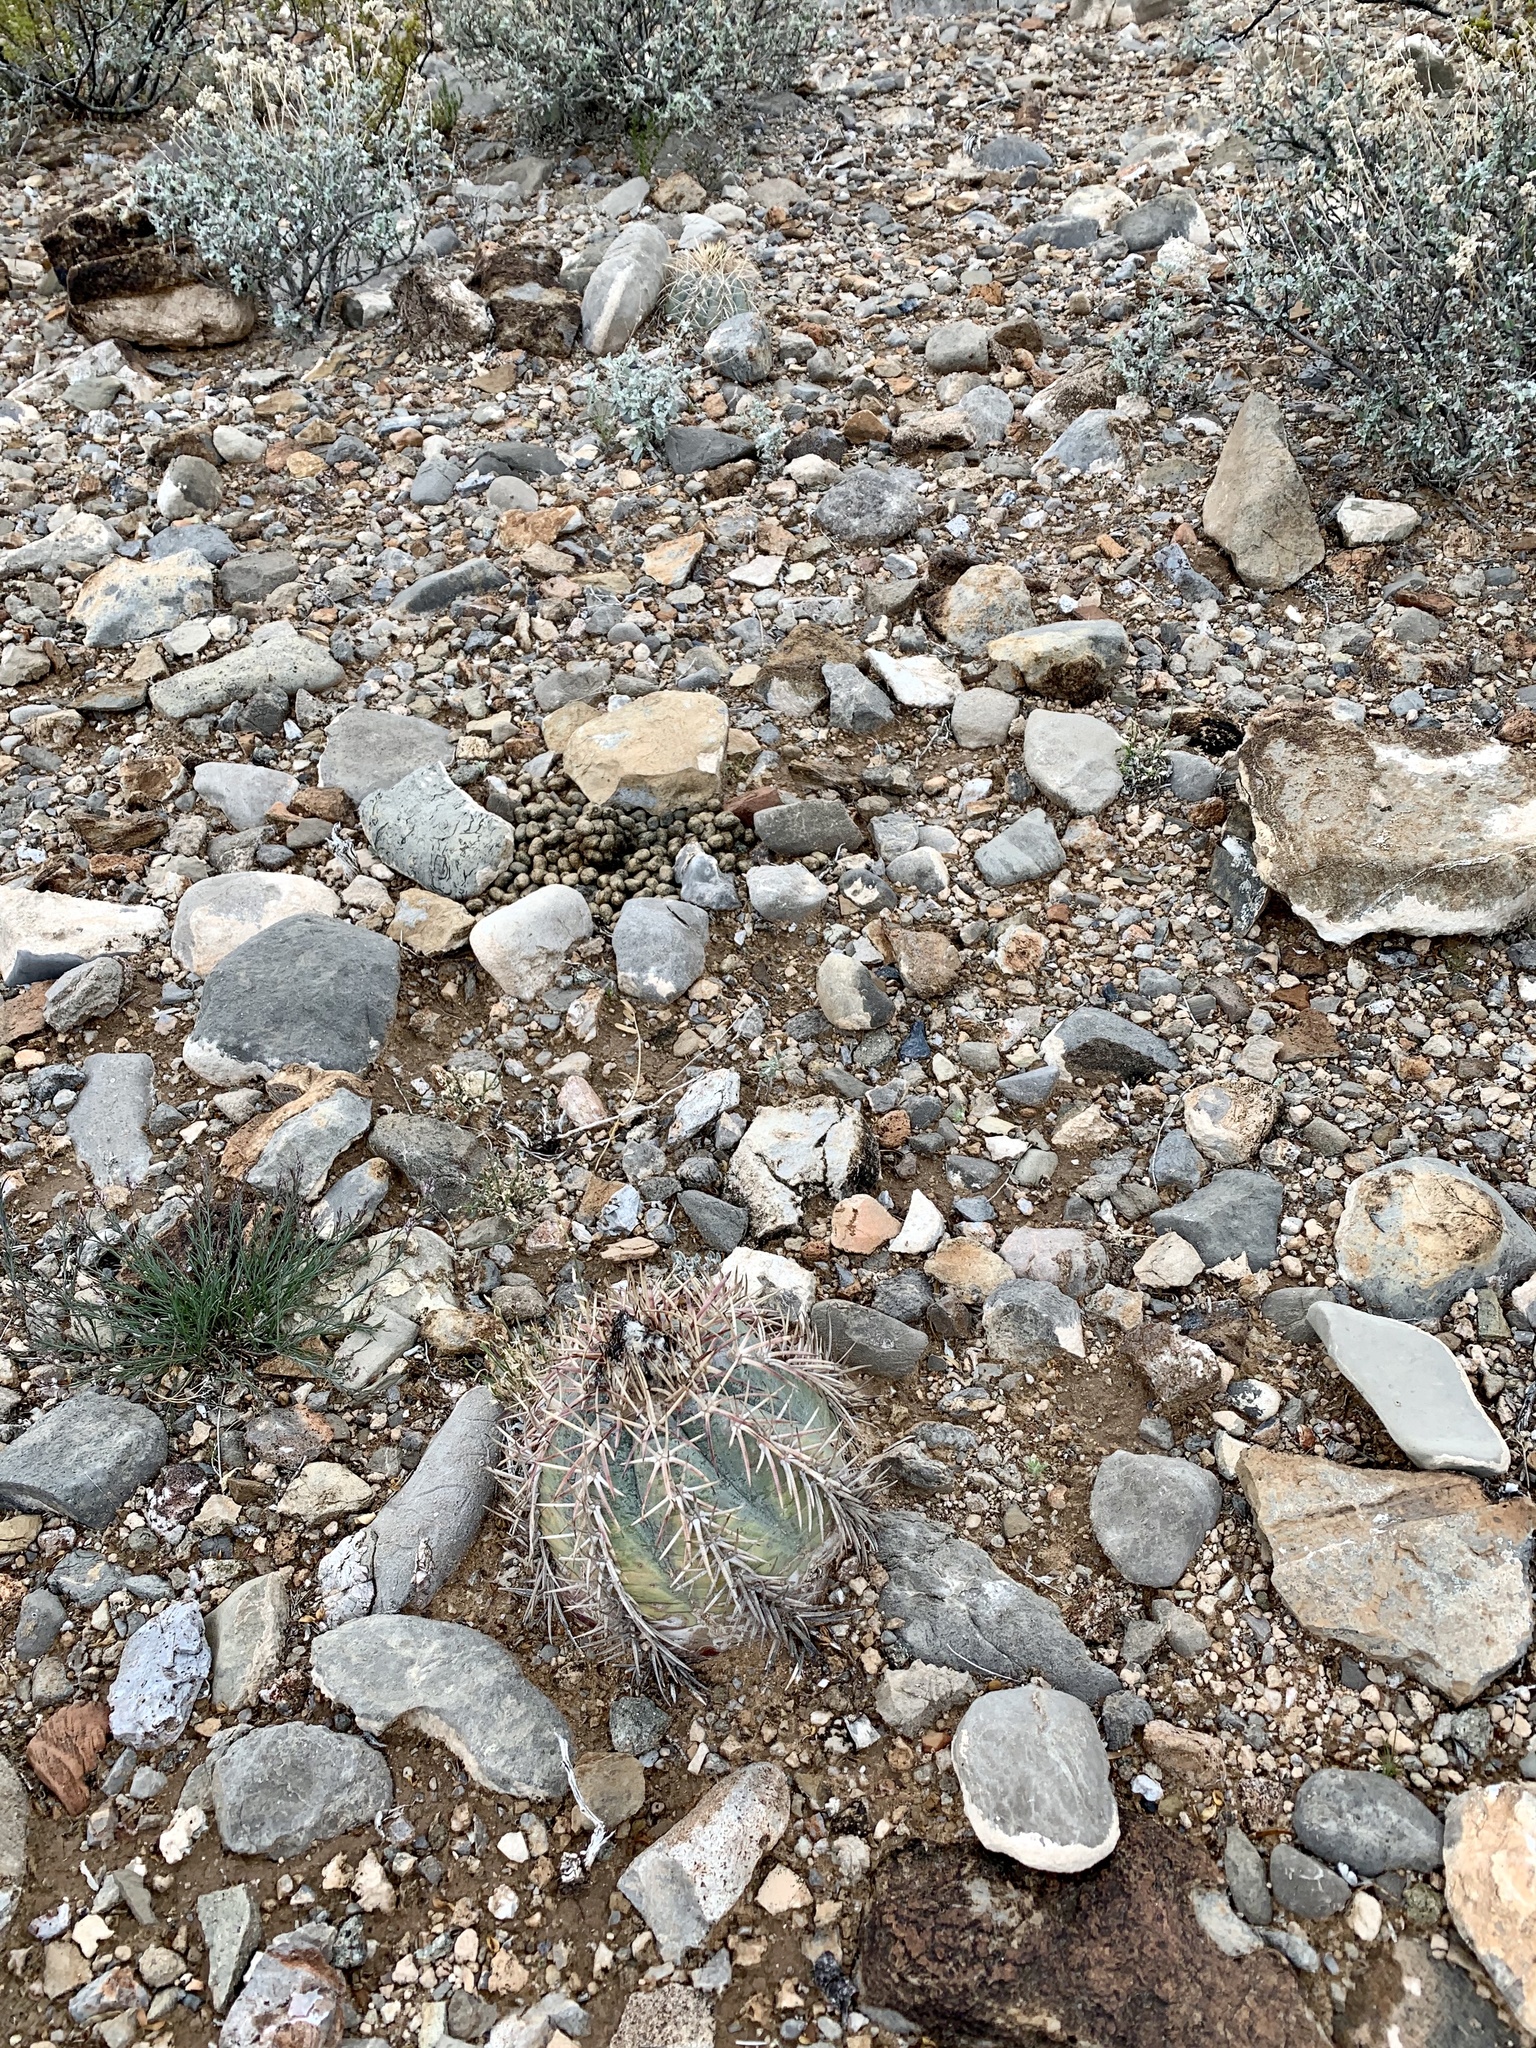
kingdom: Plantae
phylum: Tracheophyta
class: Magnoliopsida
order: Caryophyllales
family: Cactaceae
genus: Echinocactus
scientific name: Echinocactus horizonthalonius
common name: Devilshead
